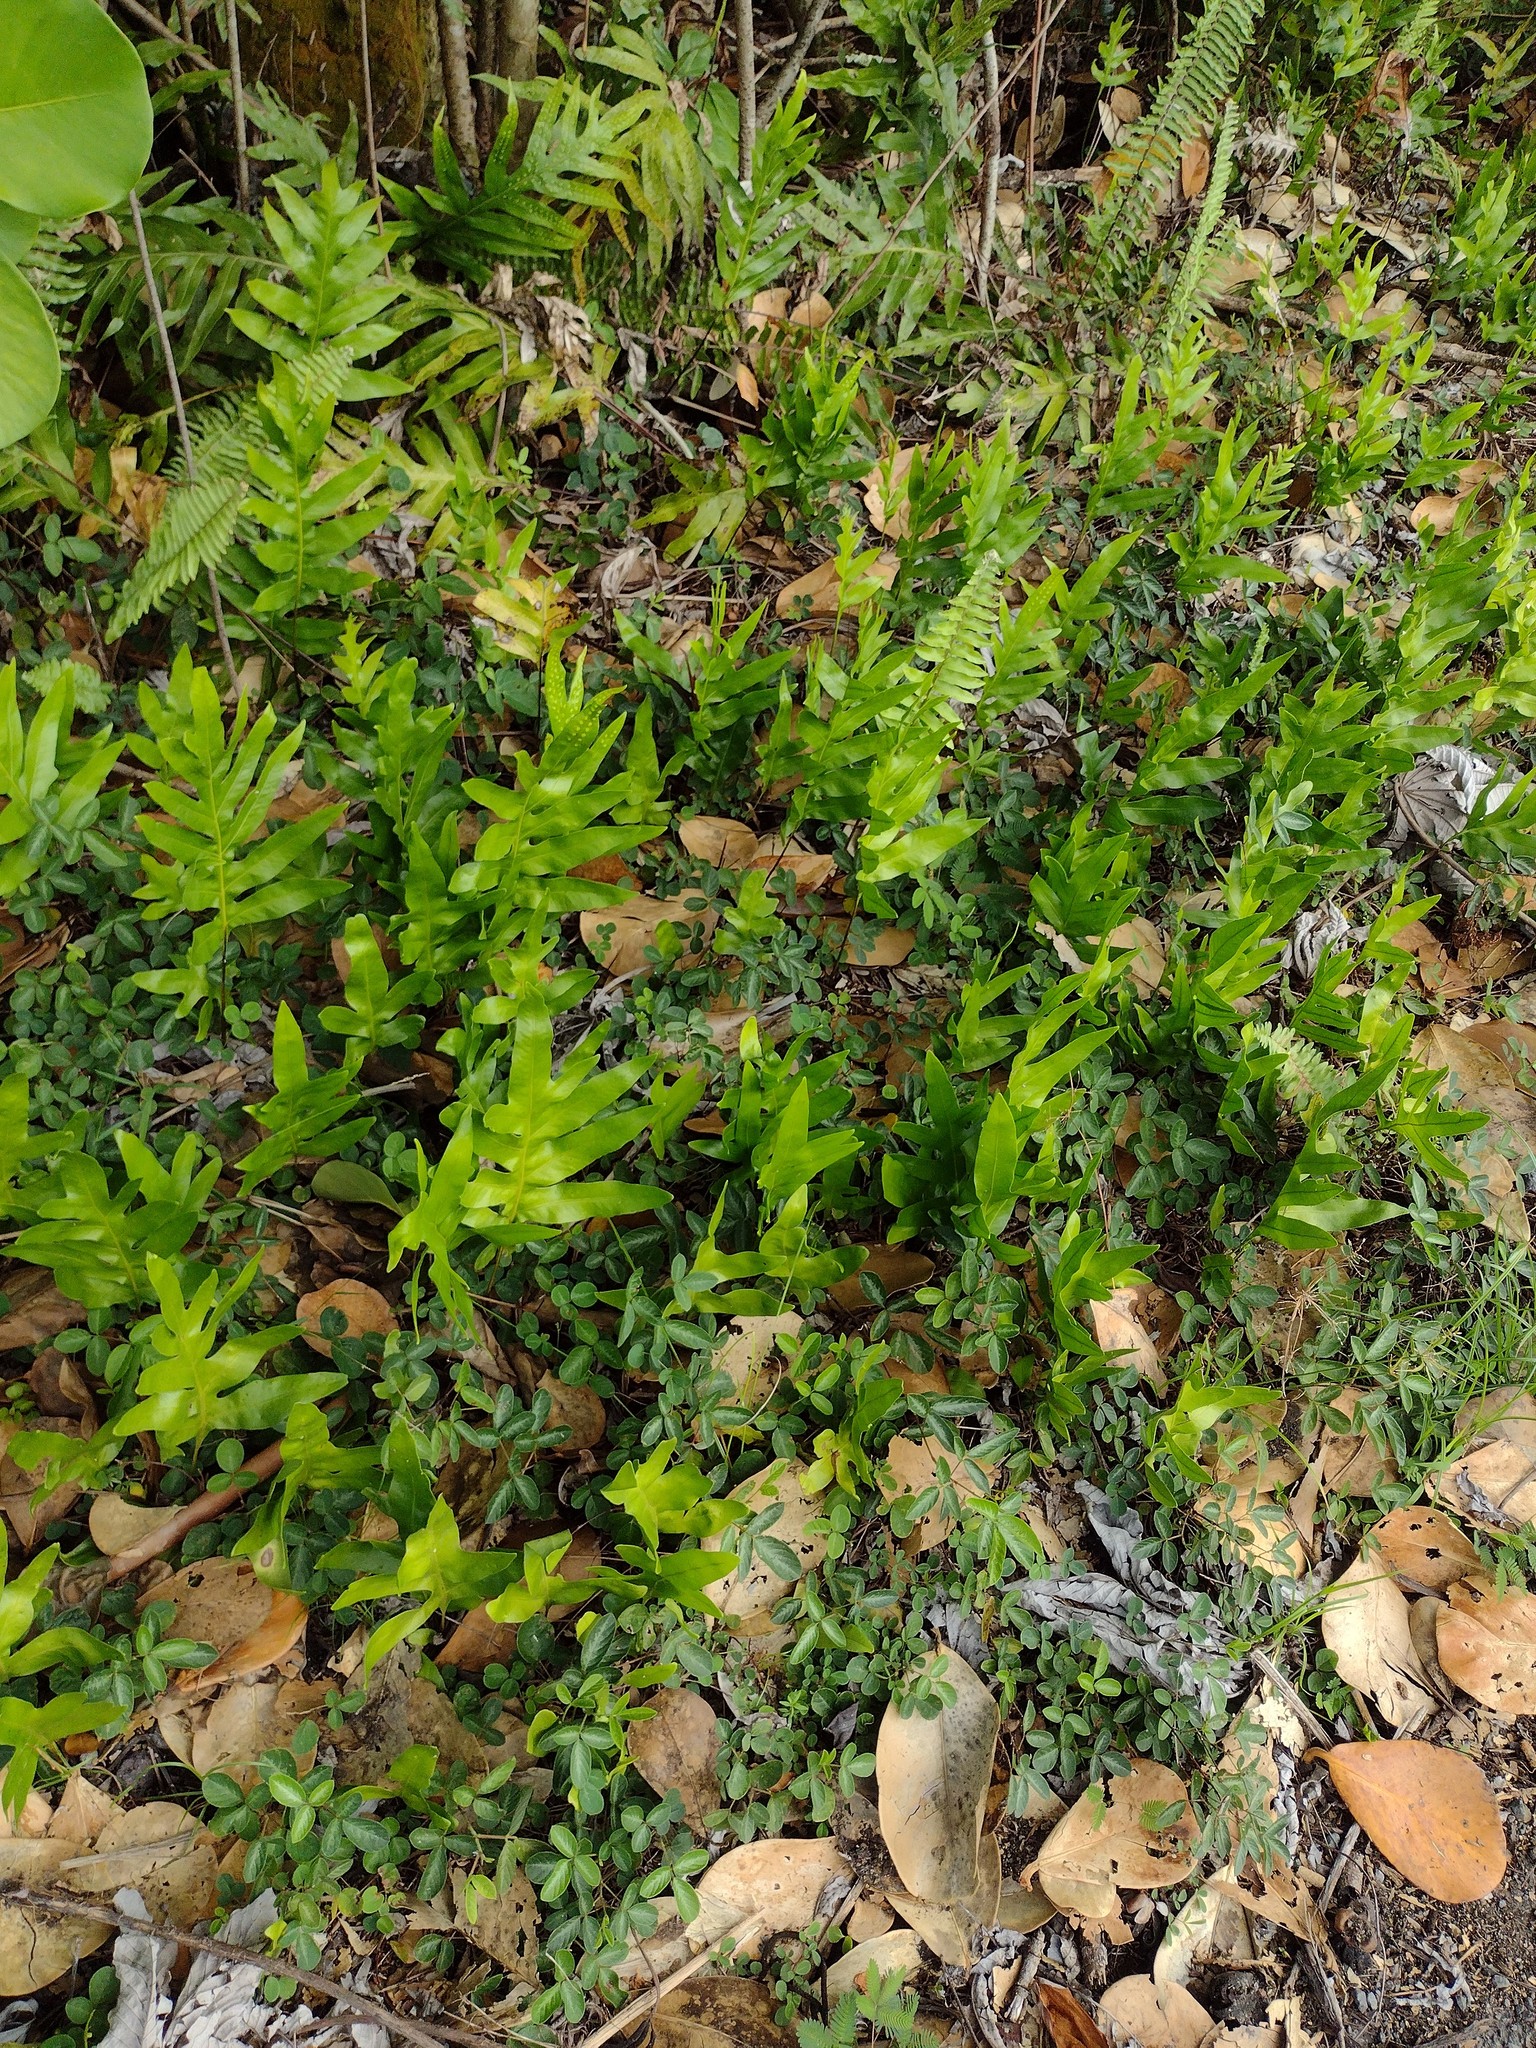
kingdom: Plantae
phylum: Tracheophyta
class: Polypodiopsida
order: Polypodiales
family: Polypodiaceae
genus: Microsorum
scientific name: Microsorum grossum
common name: Musk fern
